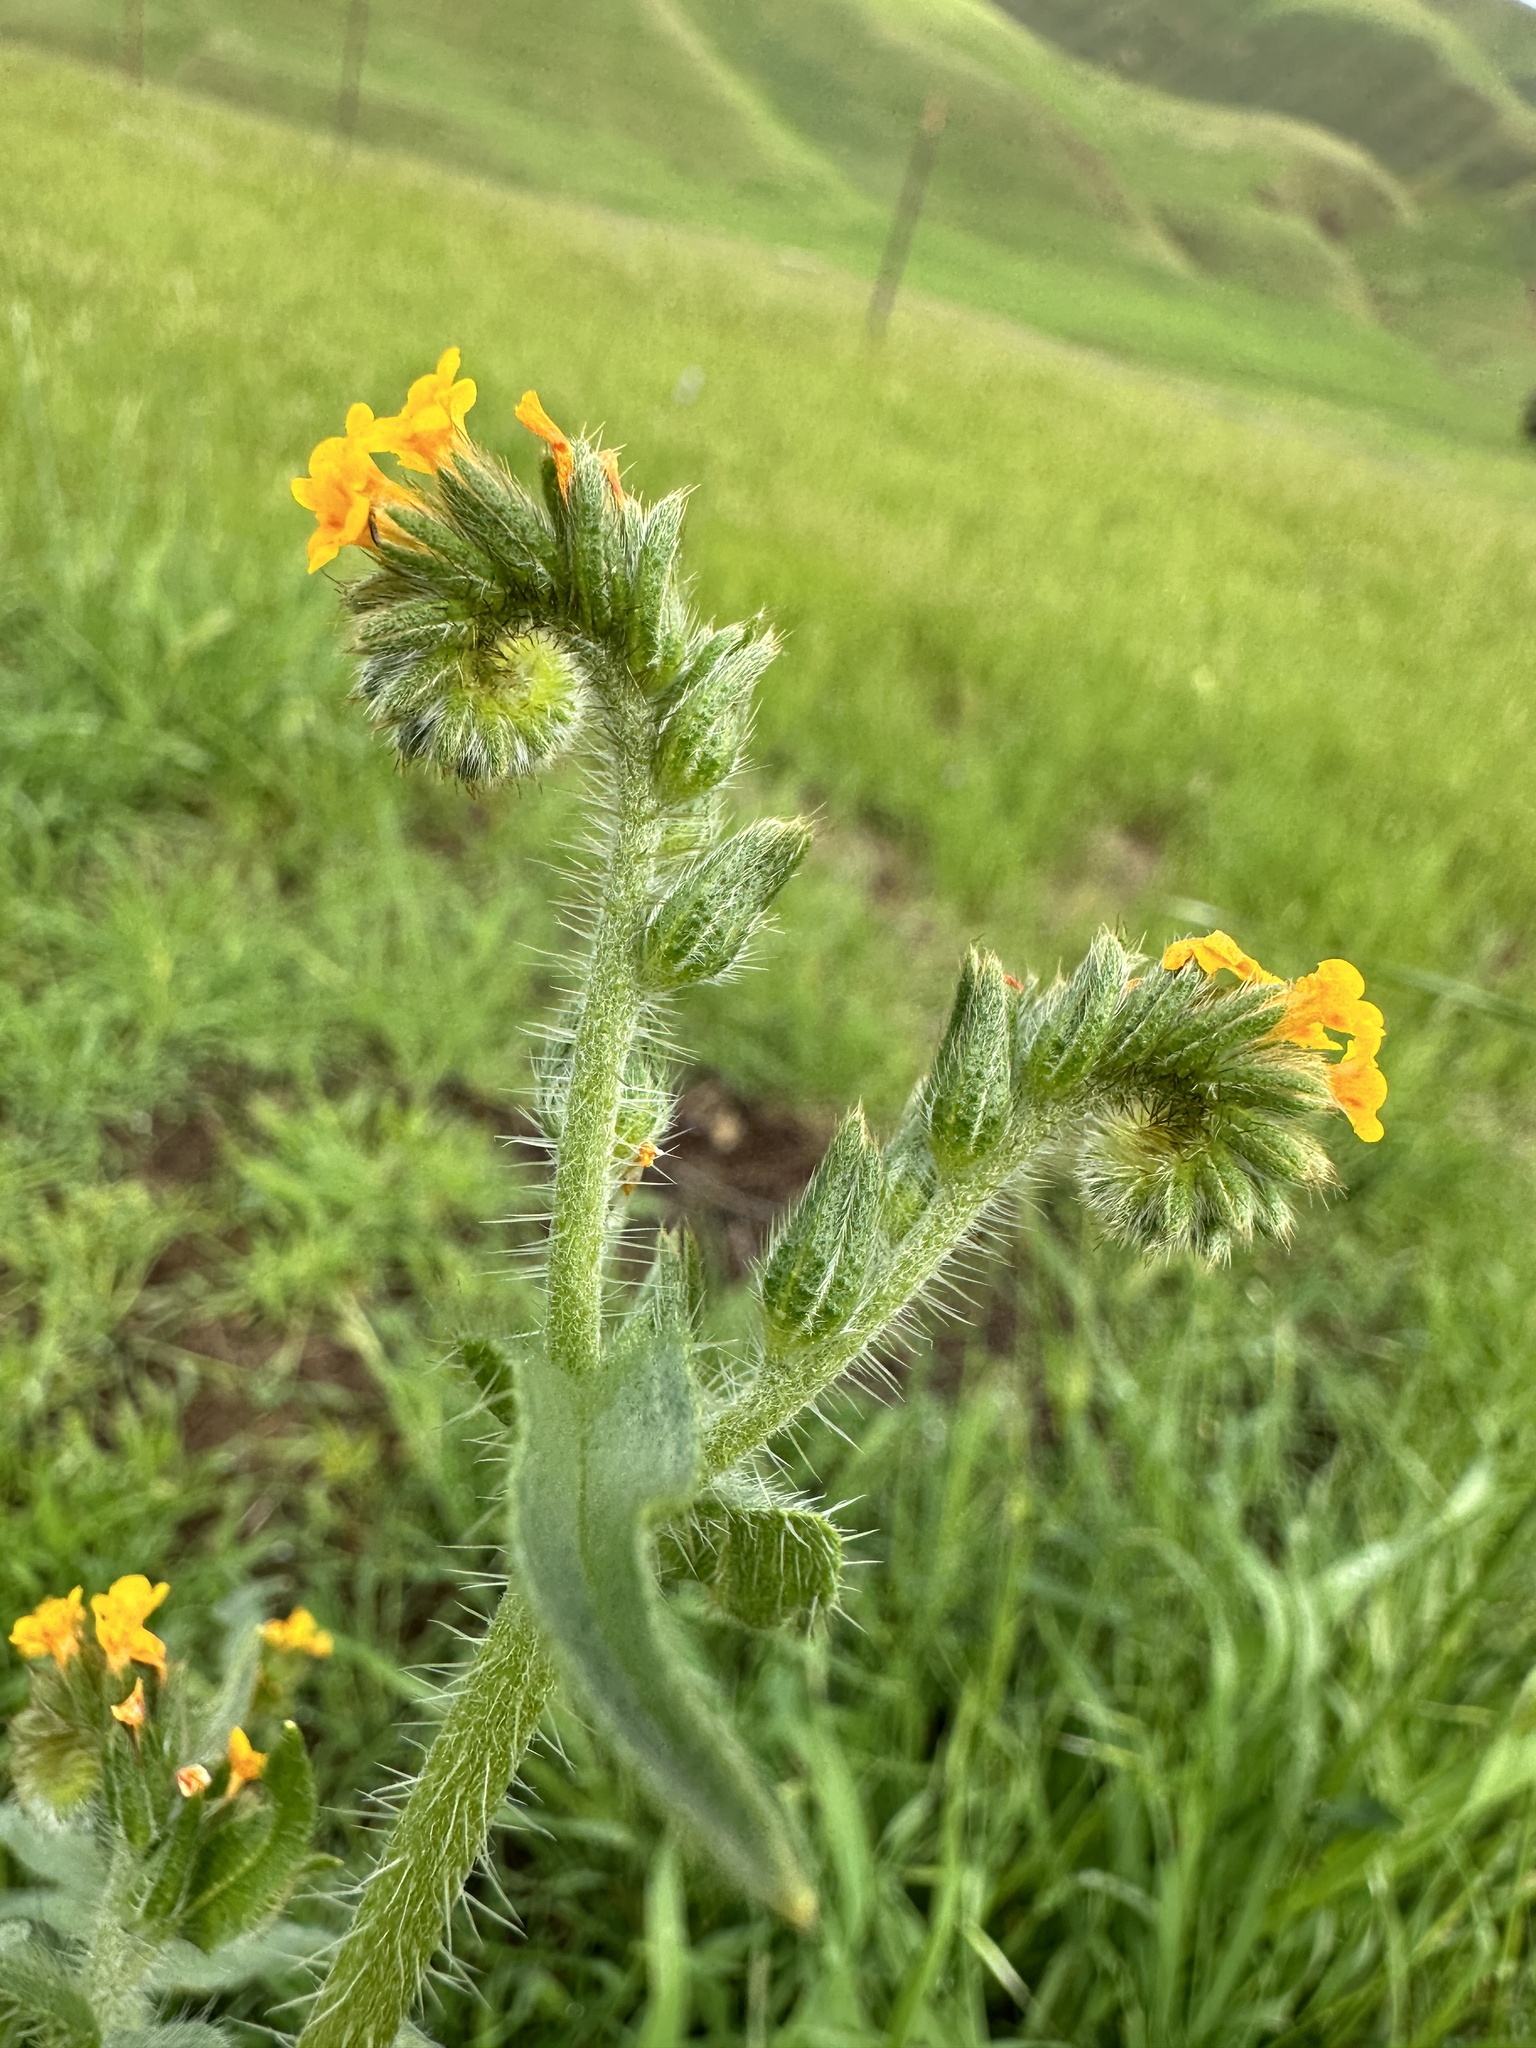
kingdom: Plantae
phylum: Tracheophyta
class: Magnoliopsida
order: Boraginales
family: Boraginaceae
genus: Amsinckia
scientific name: Amsinckia menziesii
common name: Menzies' fiddleneck
